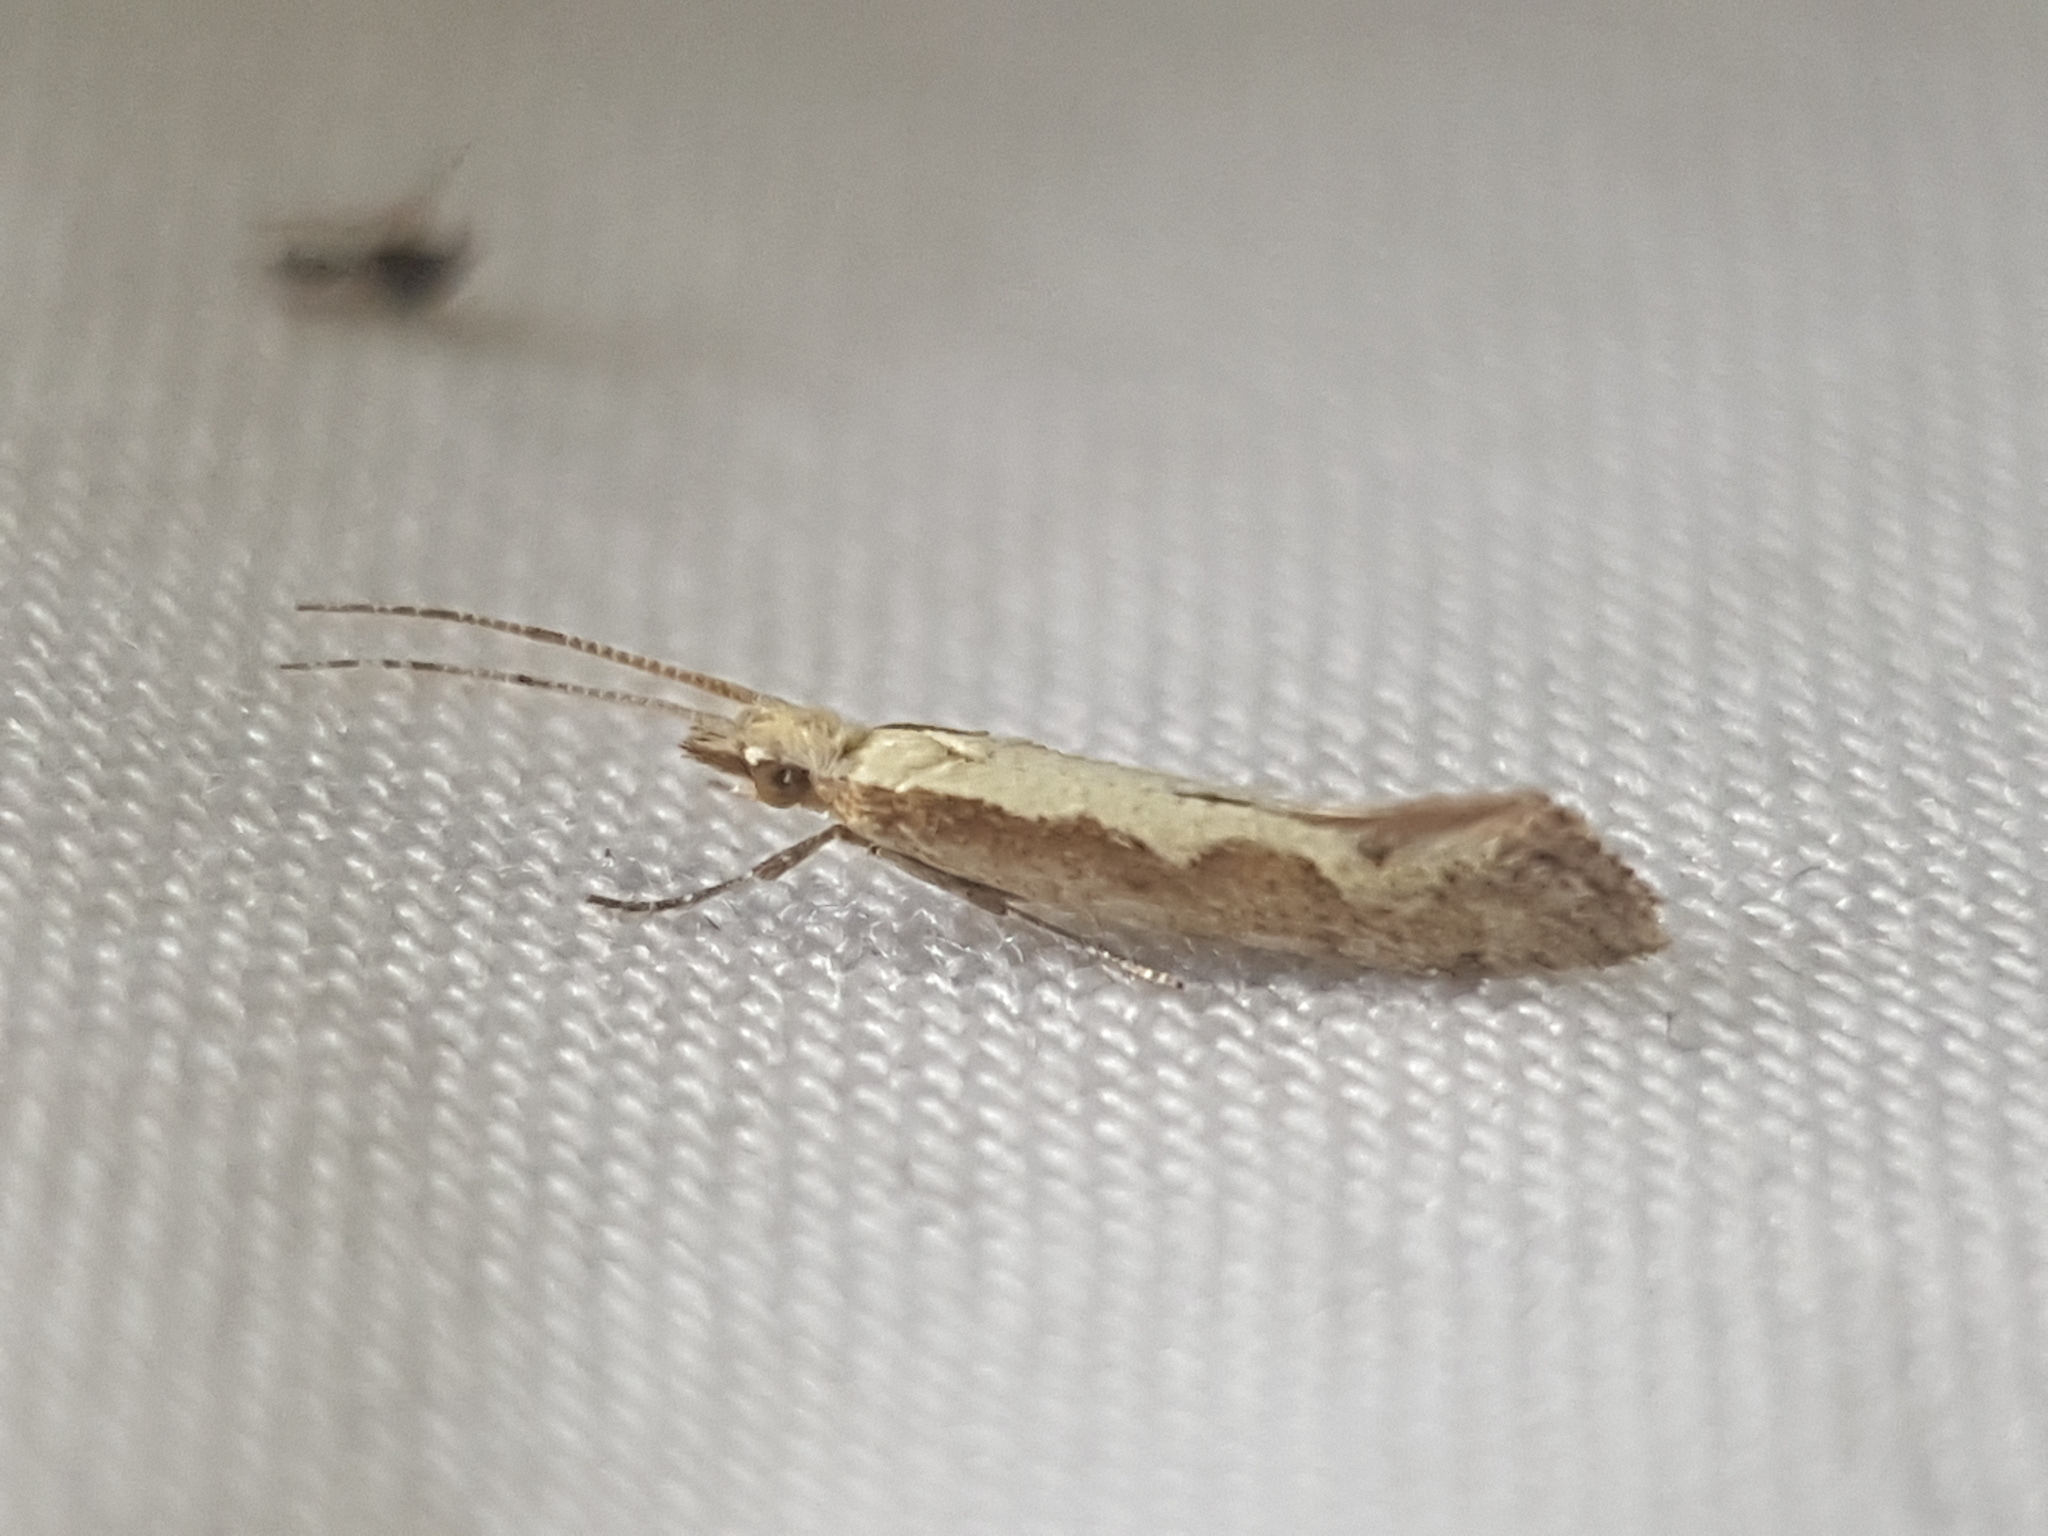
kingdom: Animalia
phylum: Arthropoda
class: Insecta
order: Lepidoptera
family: Plutellidae
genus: Plutella
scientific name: Plutella xylostella
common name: Diamond-back moth
